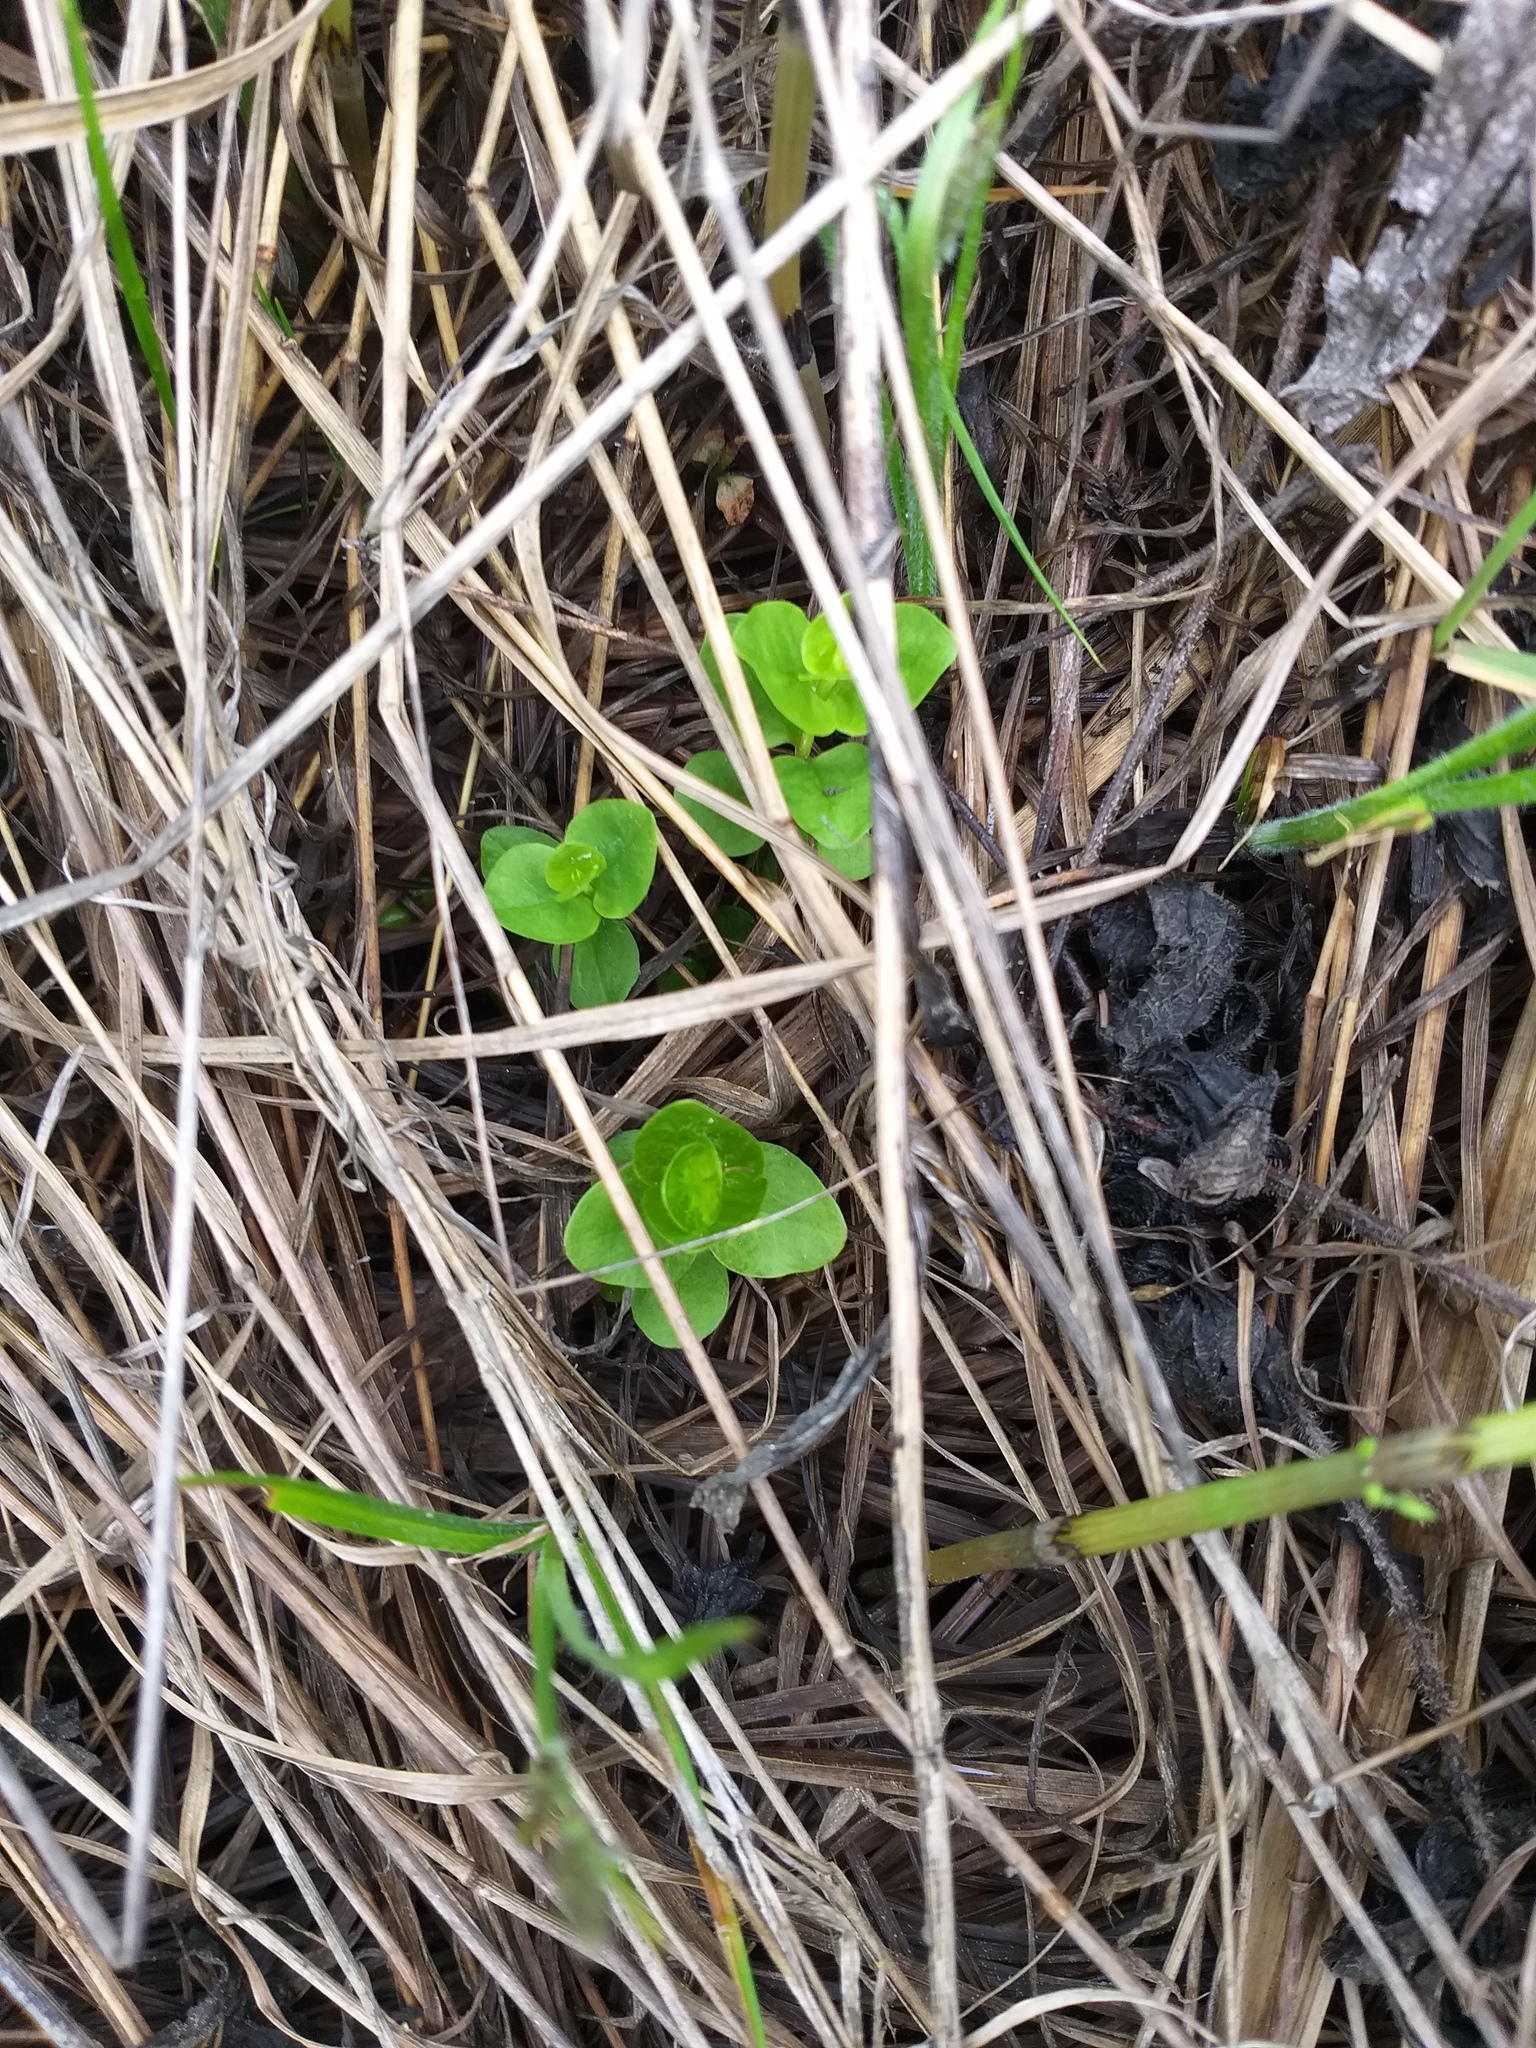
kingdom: Plantae
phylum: Tracheophyta
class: Magnoliopsida
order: Ericales
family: Primulaceae
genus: Lysimachia
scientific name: Lysimachia nummularia
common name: Moneywort
